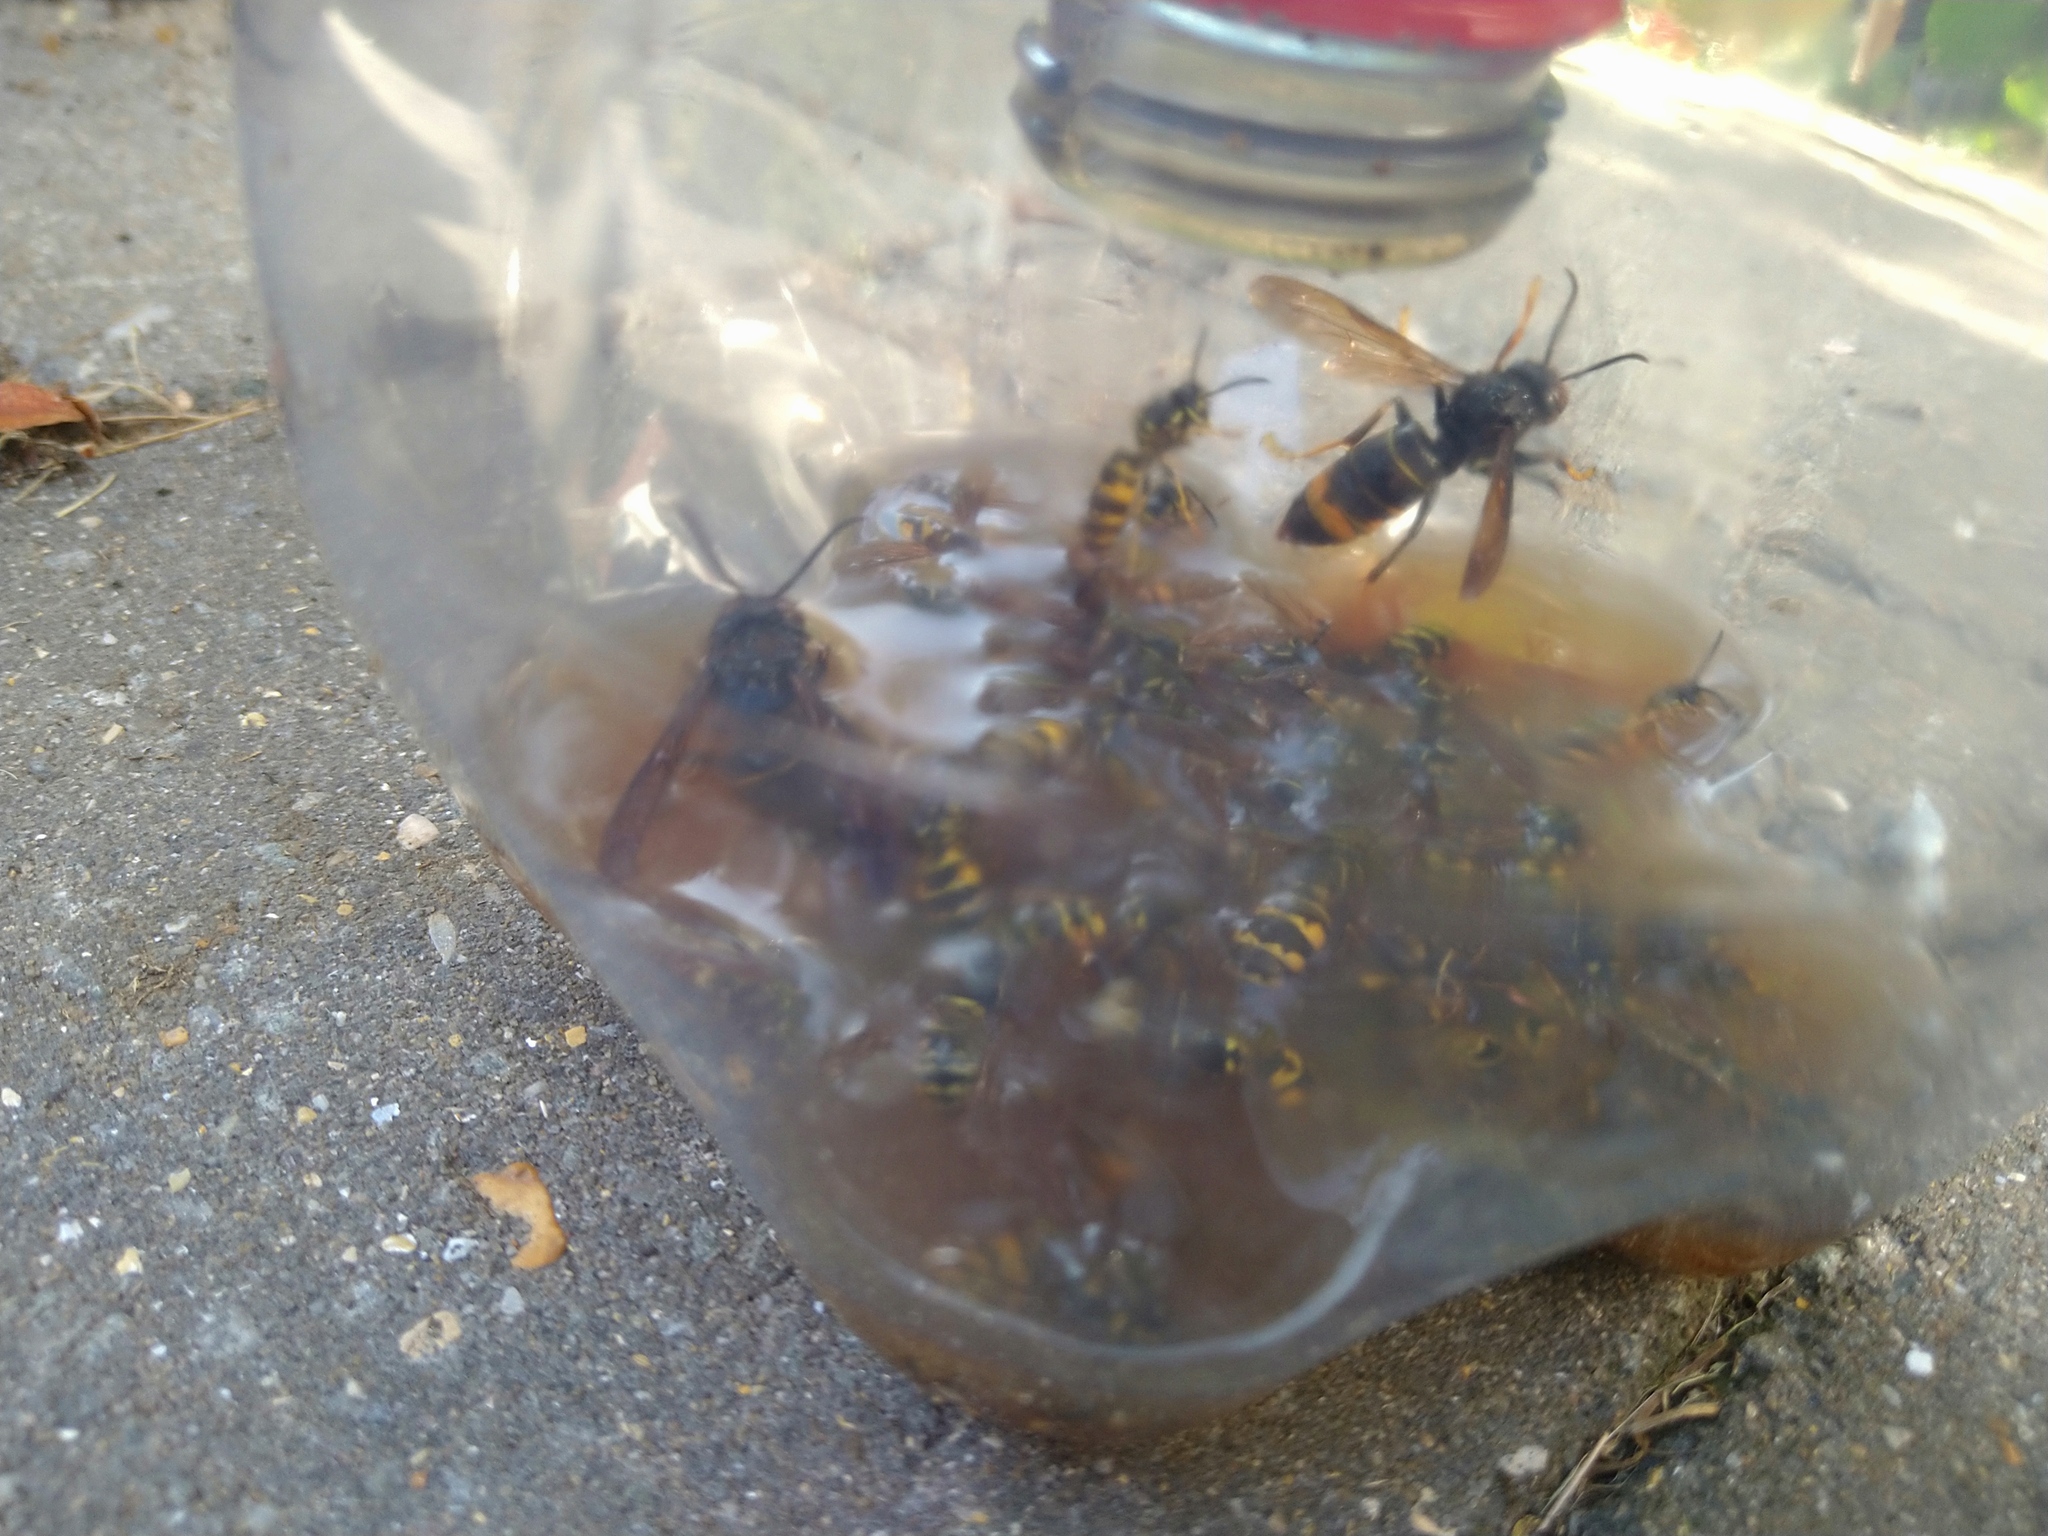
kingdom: Animalia
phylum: Arthropoda
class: Insecta
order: Hymenoptera
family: Vespidae
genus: Vespa
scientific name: Vespa velutina
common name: Asian hornet
